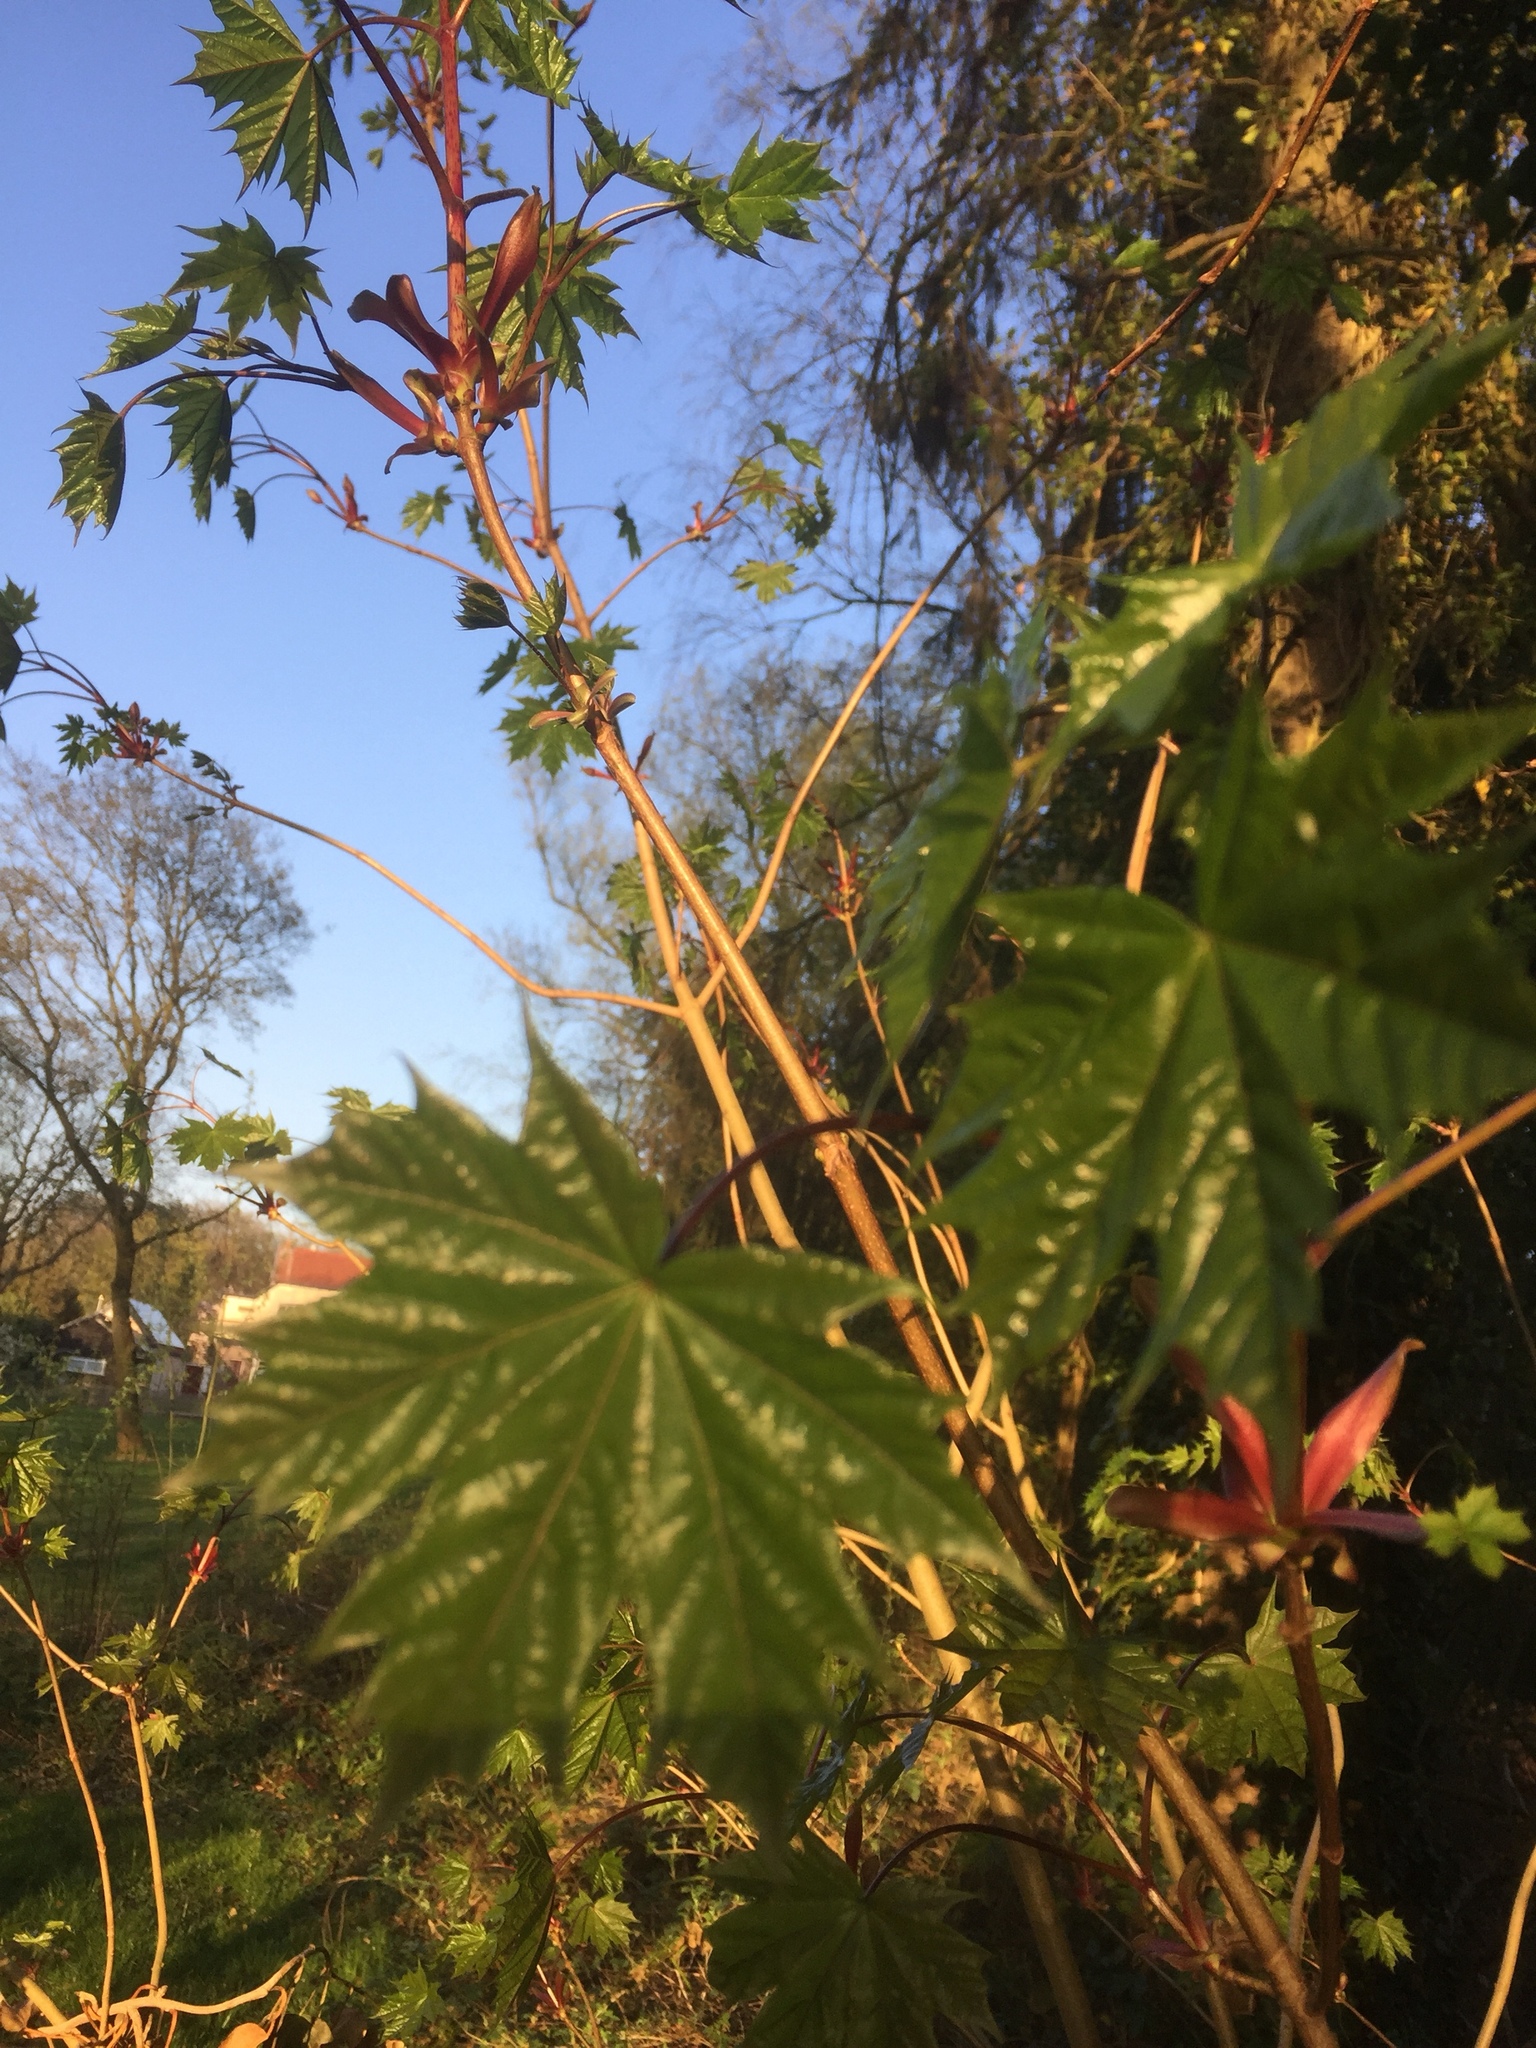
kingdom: Plantae
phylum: Tracheophyta
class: Magnoliopsida
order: Sapindales
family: Sapindaceae
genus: Acer
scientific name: Acer platanoides
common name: Norway maple
